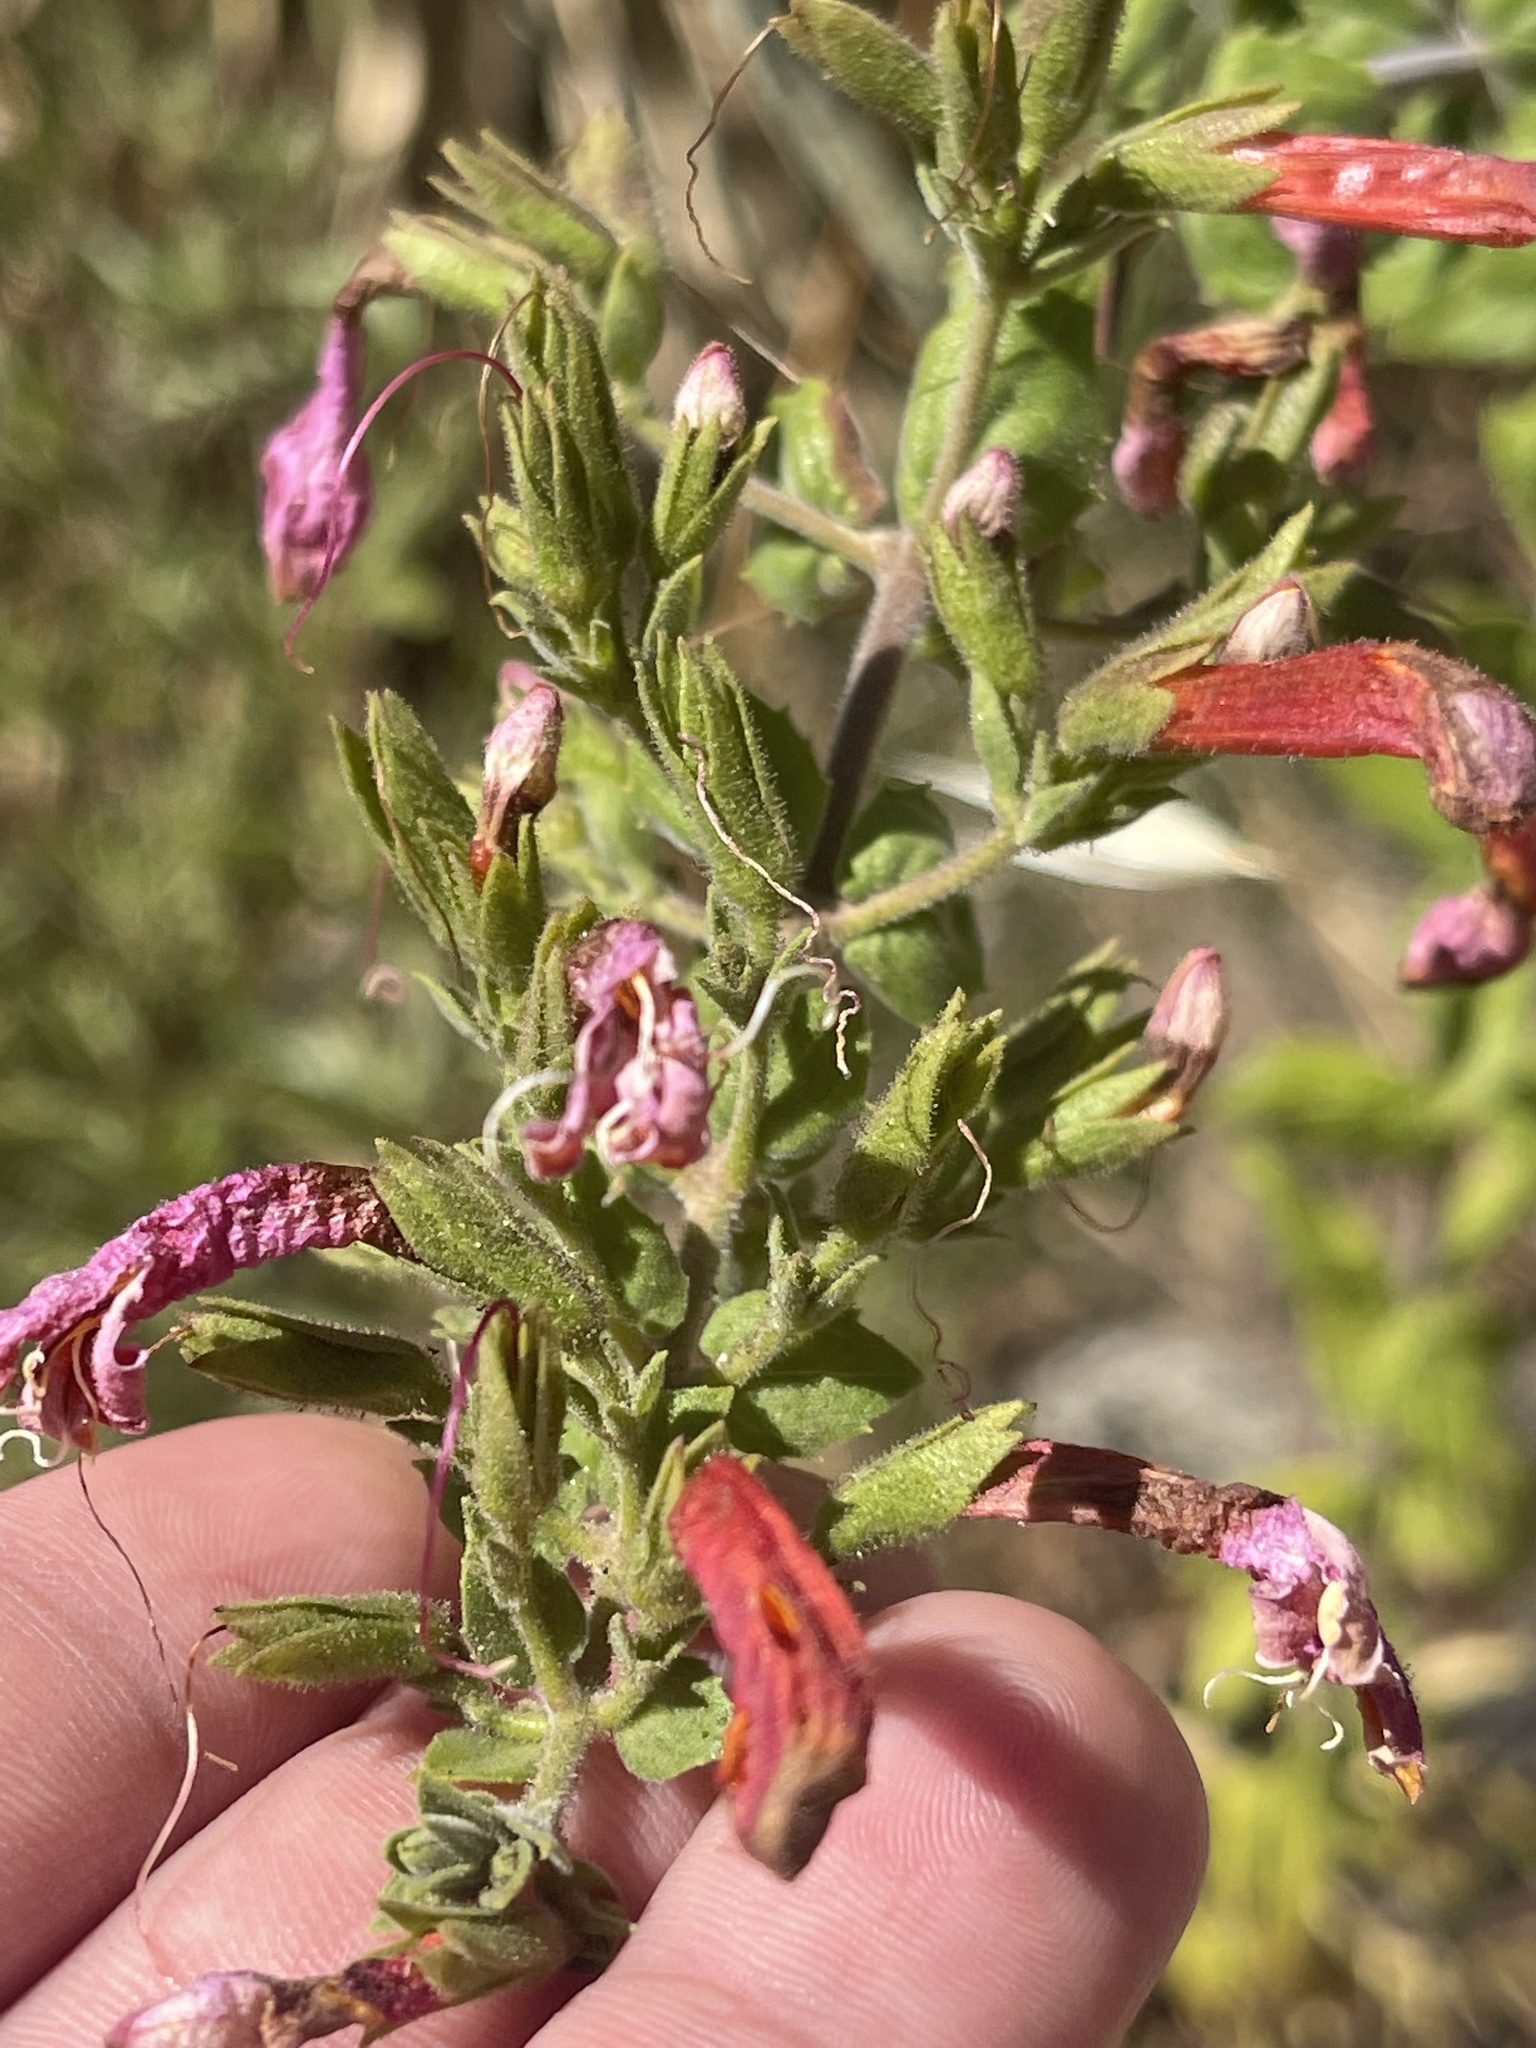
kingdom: Plantae
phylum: Tracheophyta
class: Magnoliopsida
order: Lamiales
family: Plantaginaceae
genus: Keckiella
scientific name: Keckiella cordifolia
